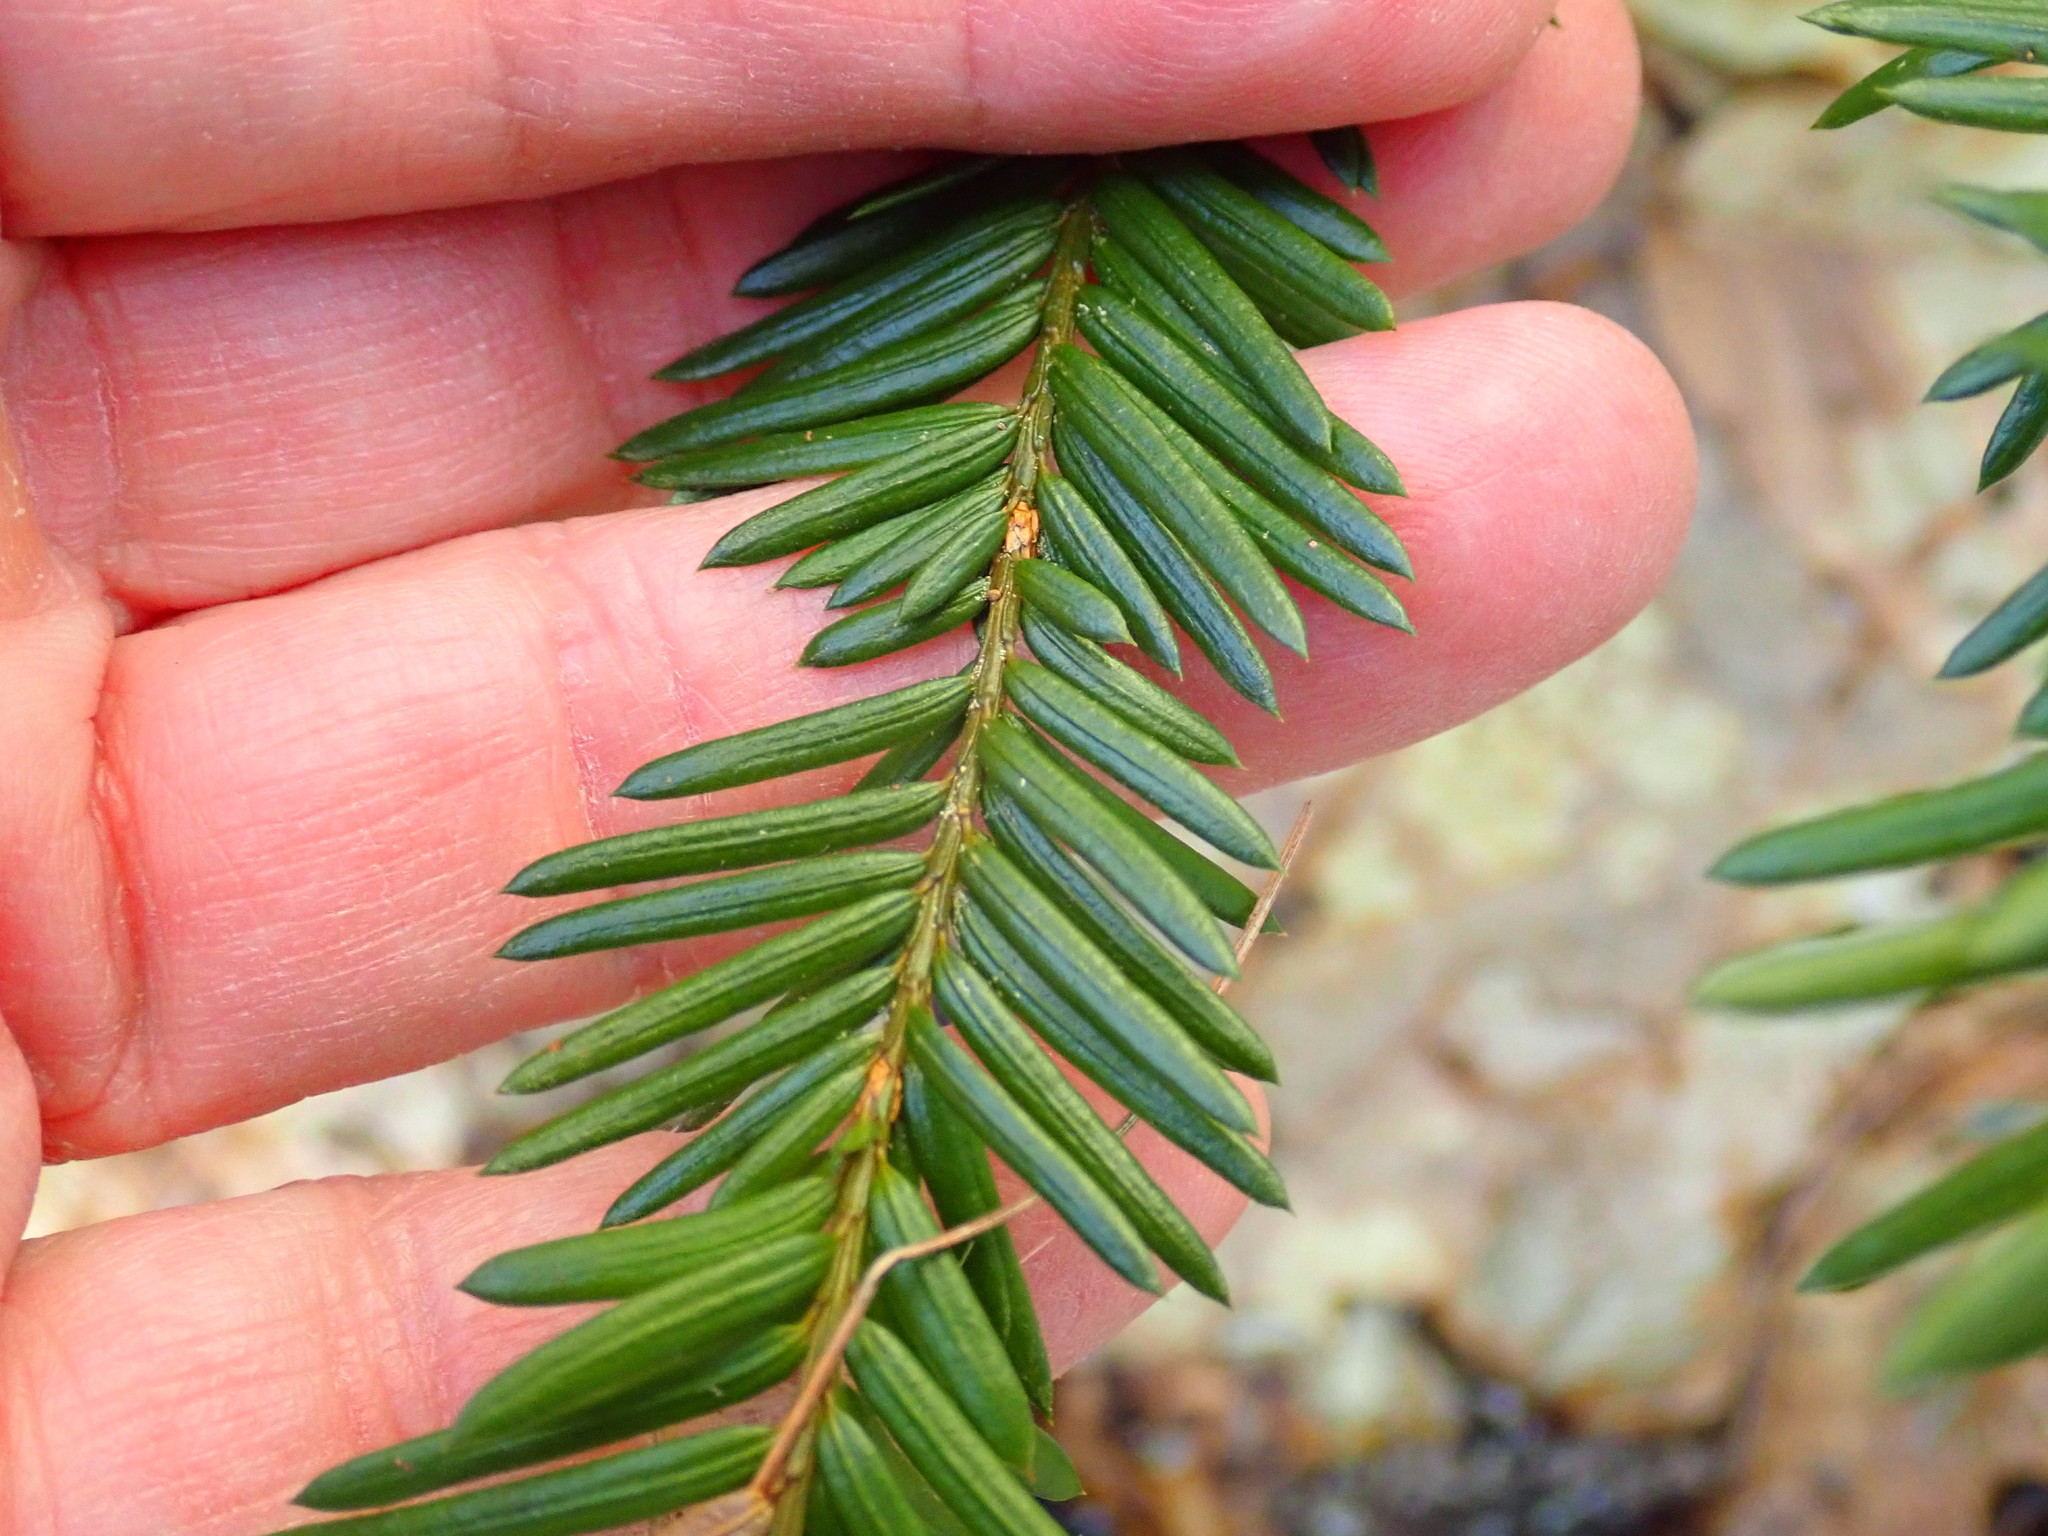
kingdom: Plantae
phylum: Tracheophyta
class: Pinopsida
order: Pinales
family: Taxaceae
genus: Taxus
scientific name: Taxus canadensis
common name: American yew
